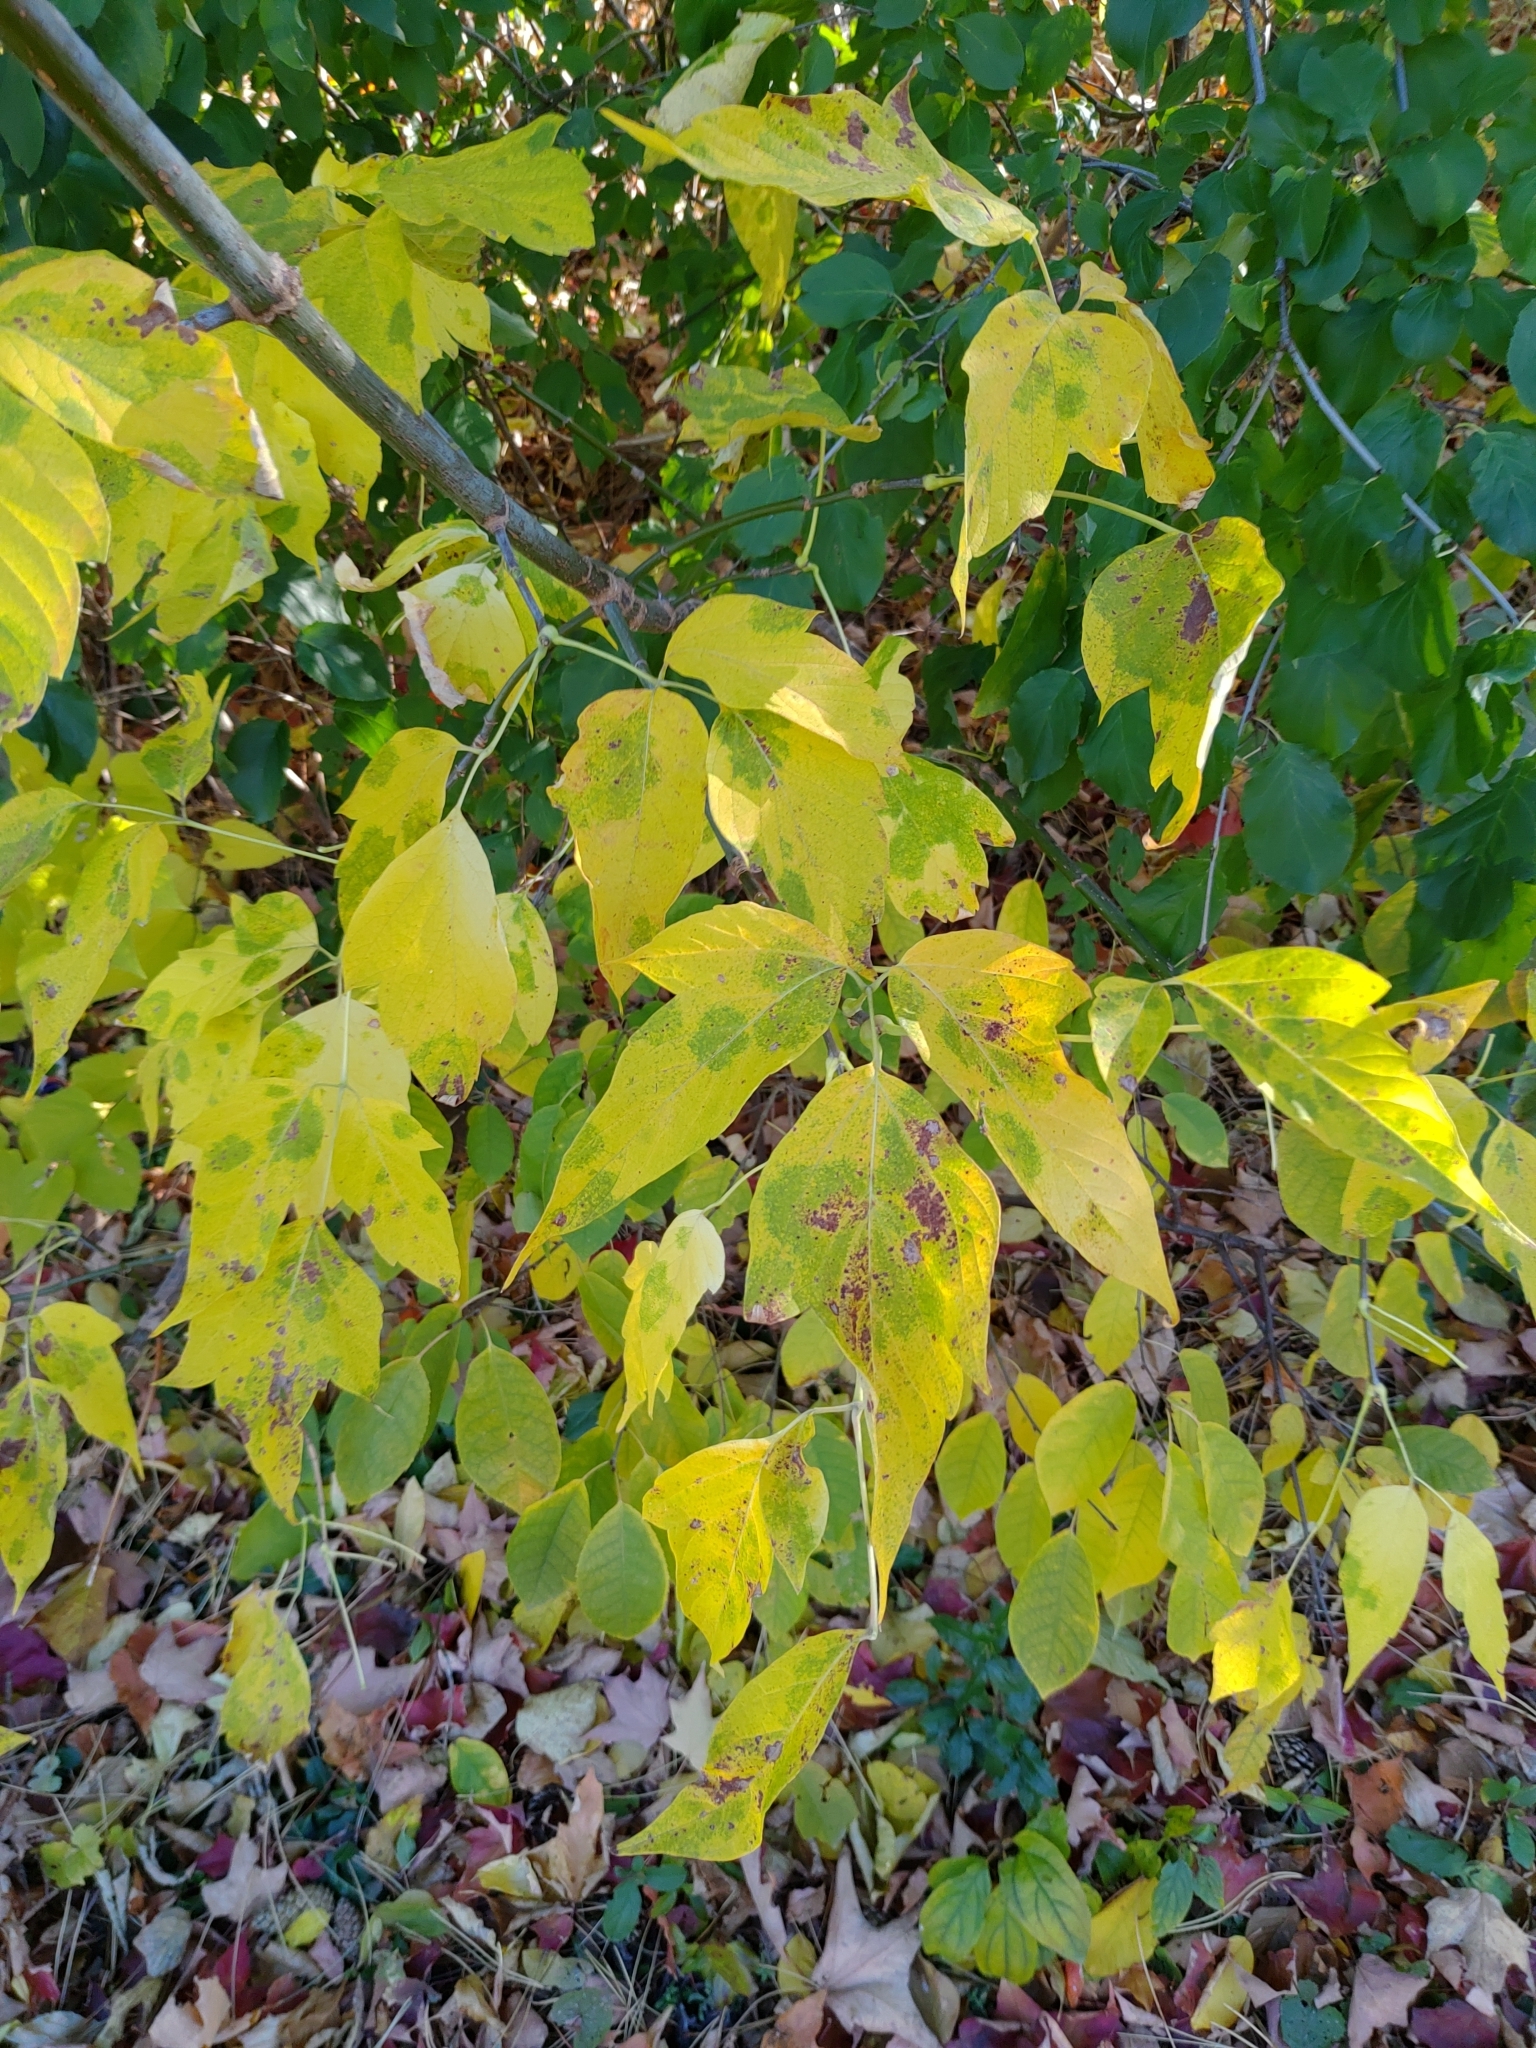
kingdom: Plantae
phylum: Tracheophyta
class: Magnoliopsida
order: Sapindales
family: Sapindaceae
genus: Acer
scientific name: Acer negundo
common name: Ashleaf maple
